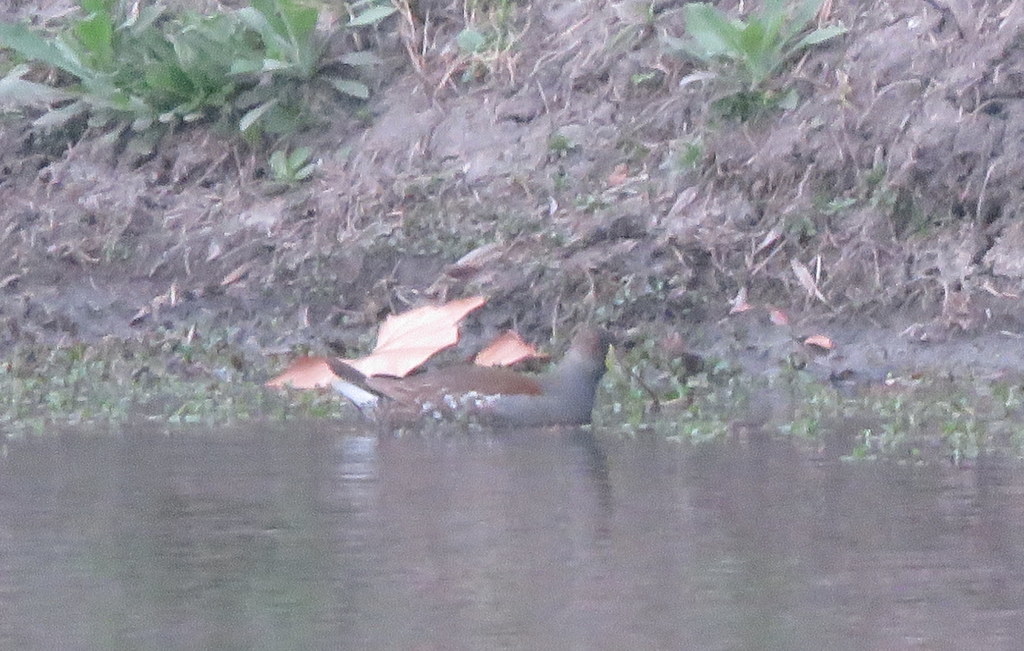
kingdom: Animalia
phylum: Chordata
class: Aves
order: Gruiformes
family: Rallidae
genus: Gallinula
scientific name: Gallinula melanops
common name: Spot-flanked gallinule
